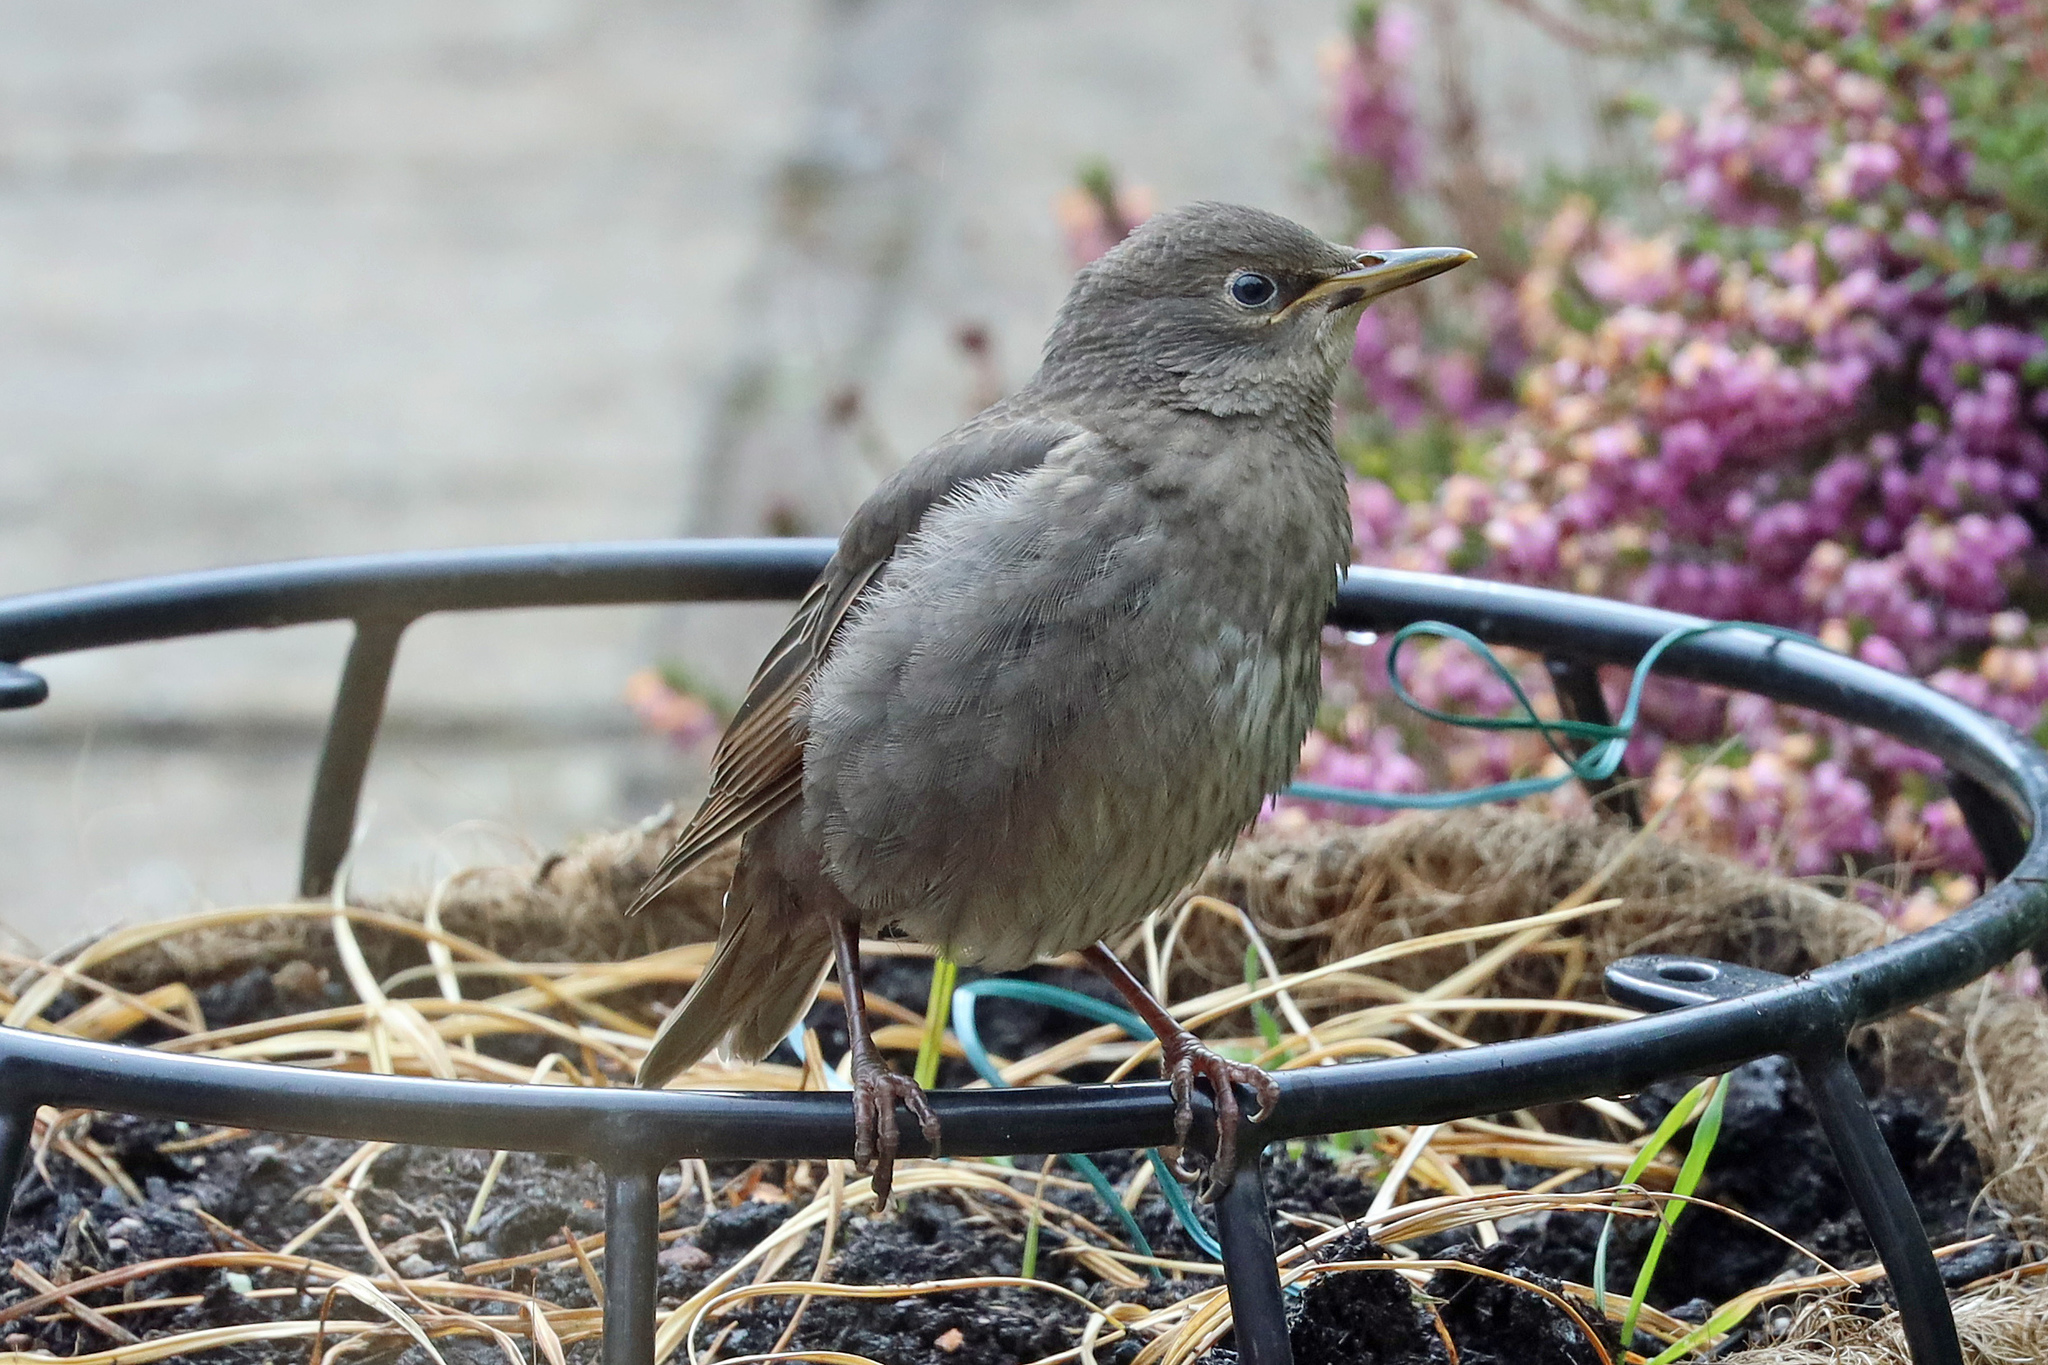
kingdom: Animalia
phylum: Chordata
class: Aves
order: Passeriformes
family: Sturnidae
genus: Sturnus
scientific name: Sturnus vulgaris
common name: Common starling
